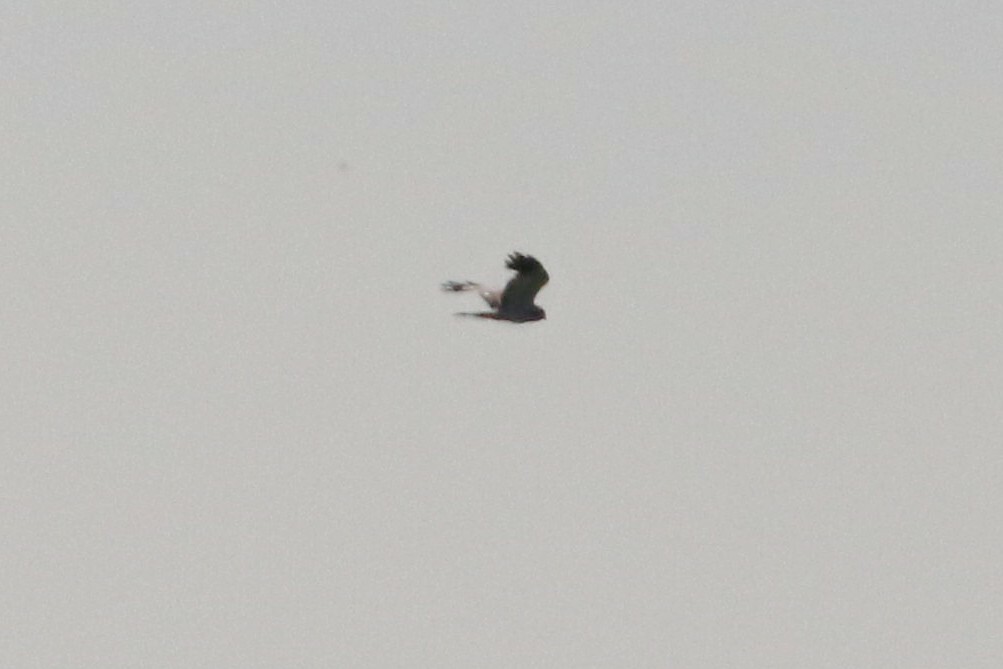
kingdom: Animalia
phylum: Chordata
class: Aves
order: Accipitriformes
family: Accipitridae
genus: Circus
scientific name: Circus cyaneus
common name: Hen harrier
